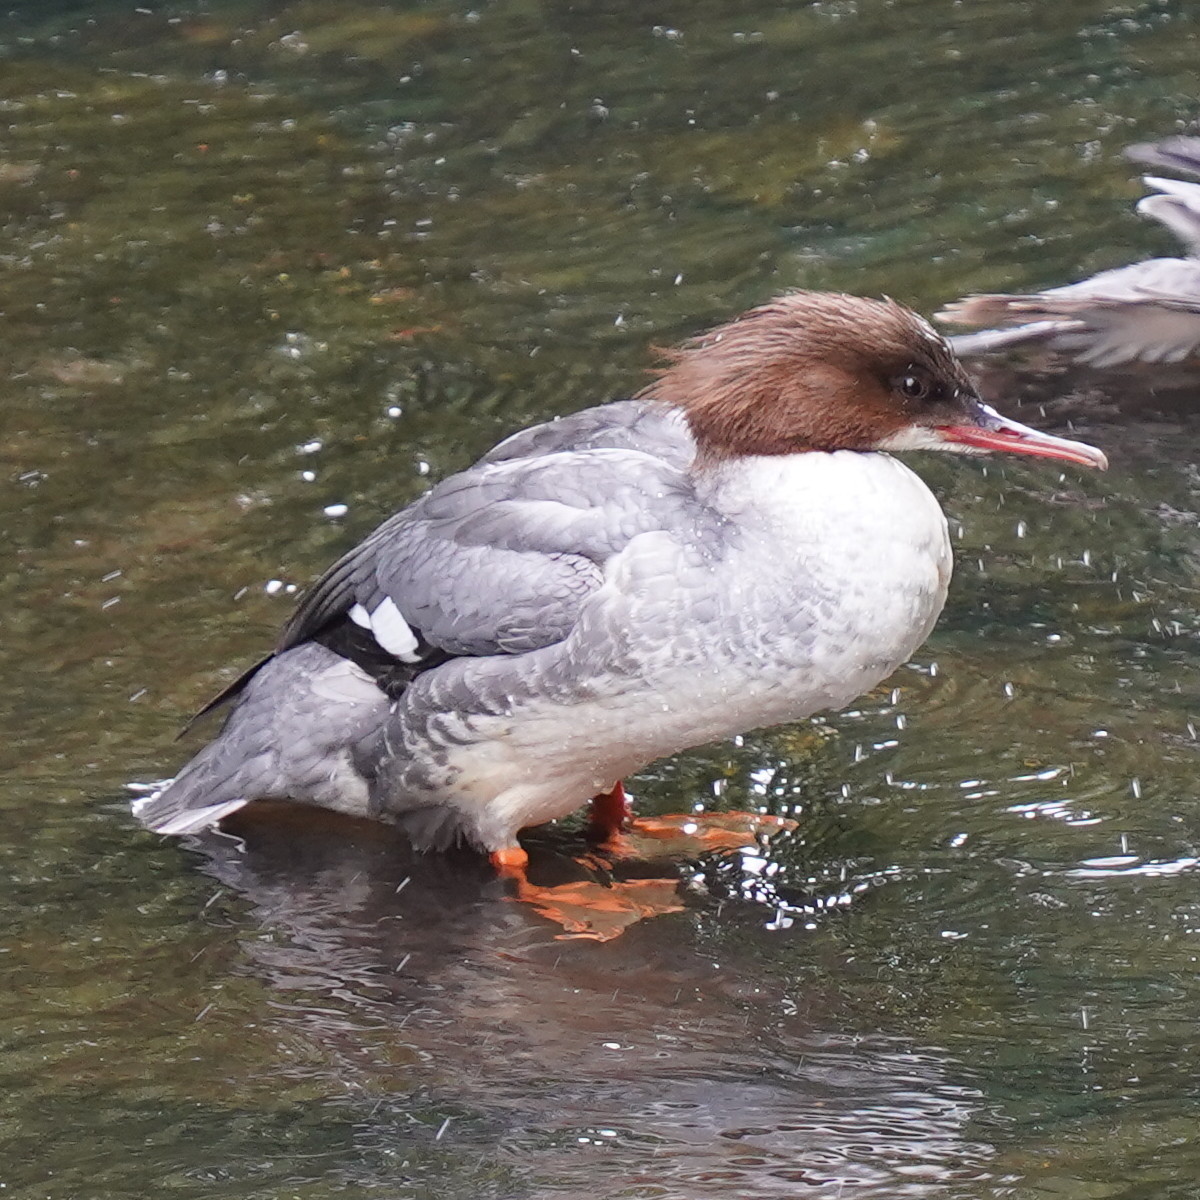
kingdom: Animalia
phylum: Chordata
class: Aves
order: Anseriformes
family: Anatidae
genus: Mergus
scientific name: Mergus merganser
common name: Common merganser
